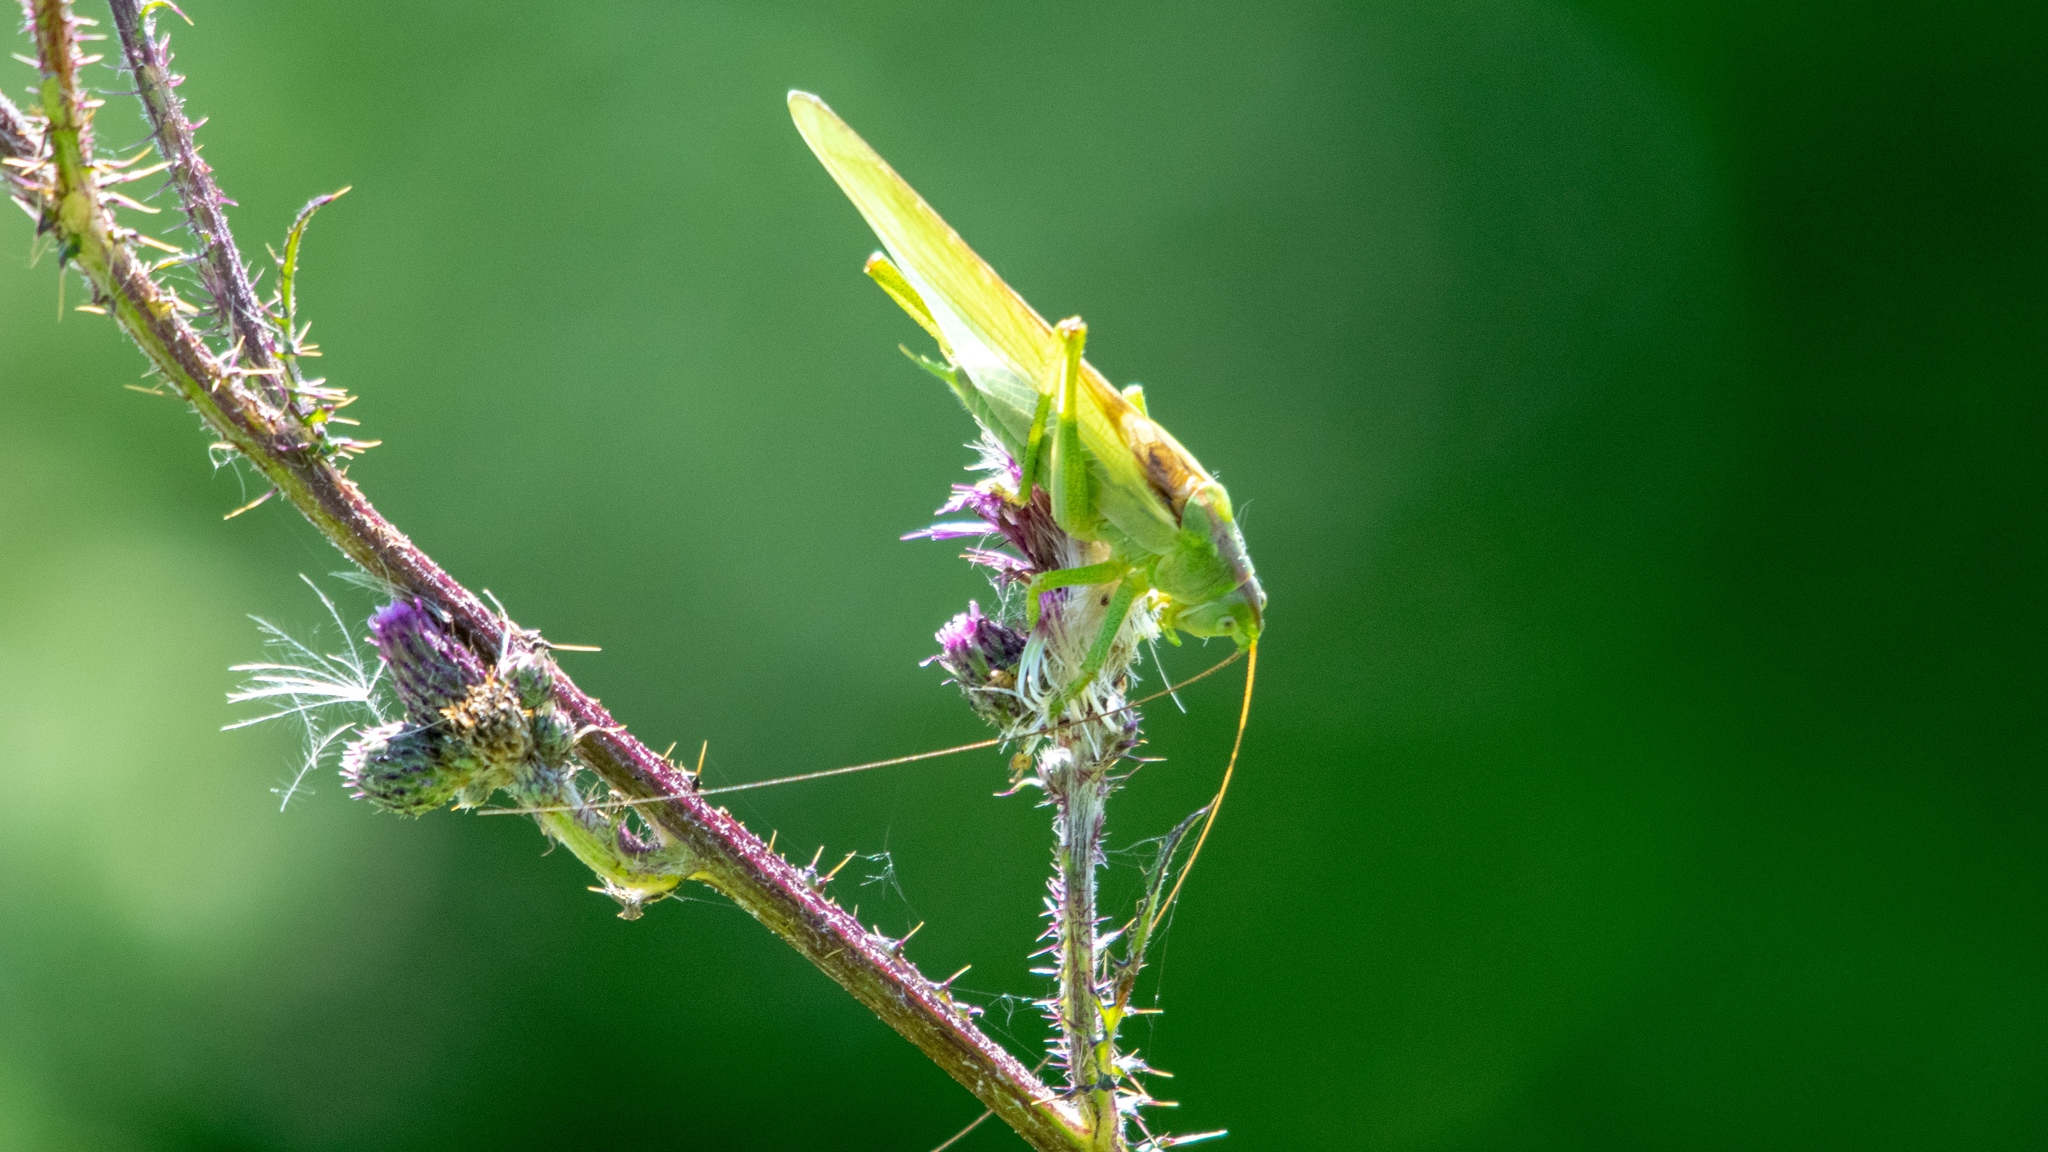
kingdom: Animalia
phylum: Arthropoda
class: Insecta
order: Orthoptera
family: Tettigoniidae
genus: Tettigonia
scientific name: Tettigonia viridissima
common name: Great green bush-cricket
